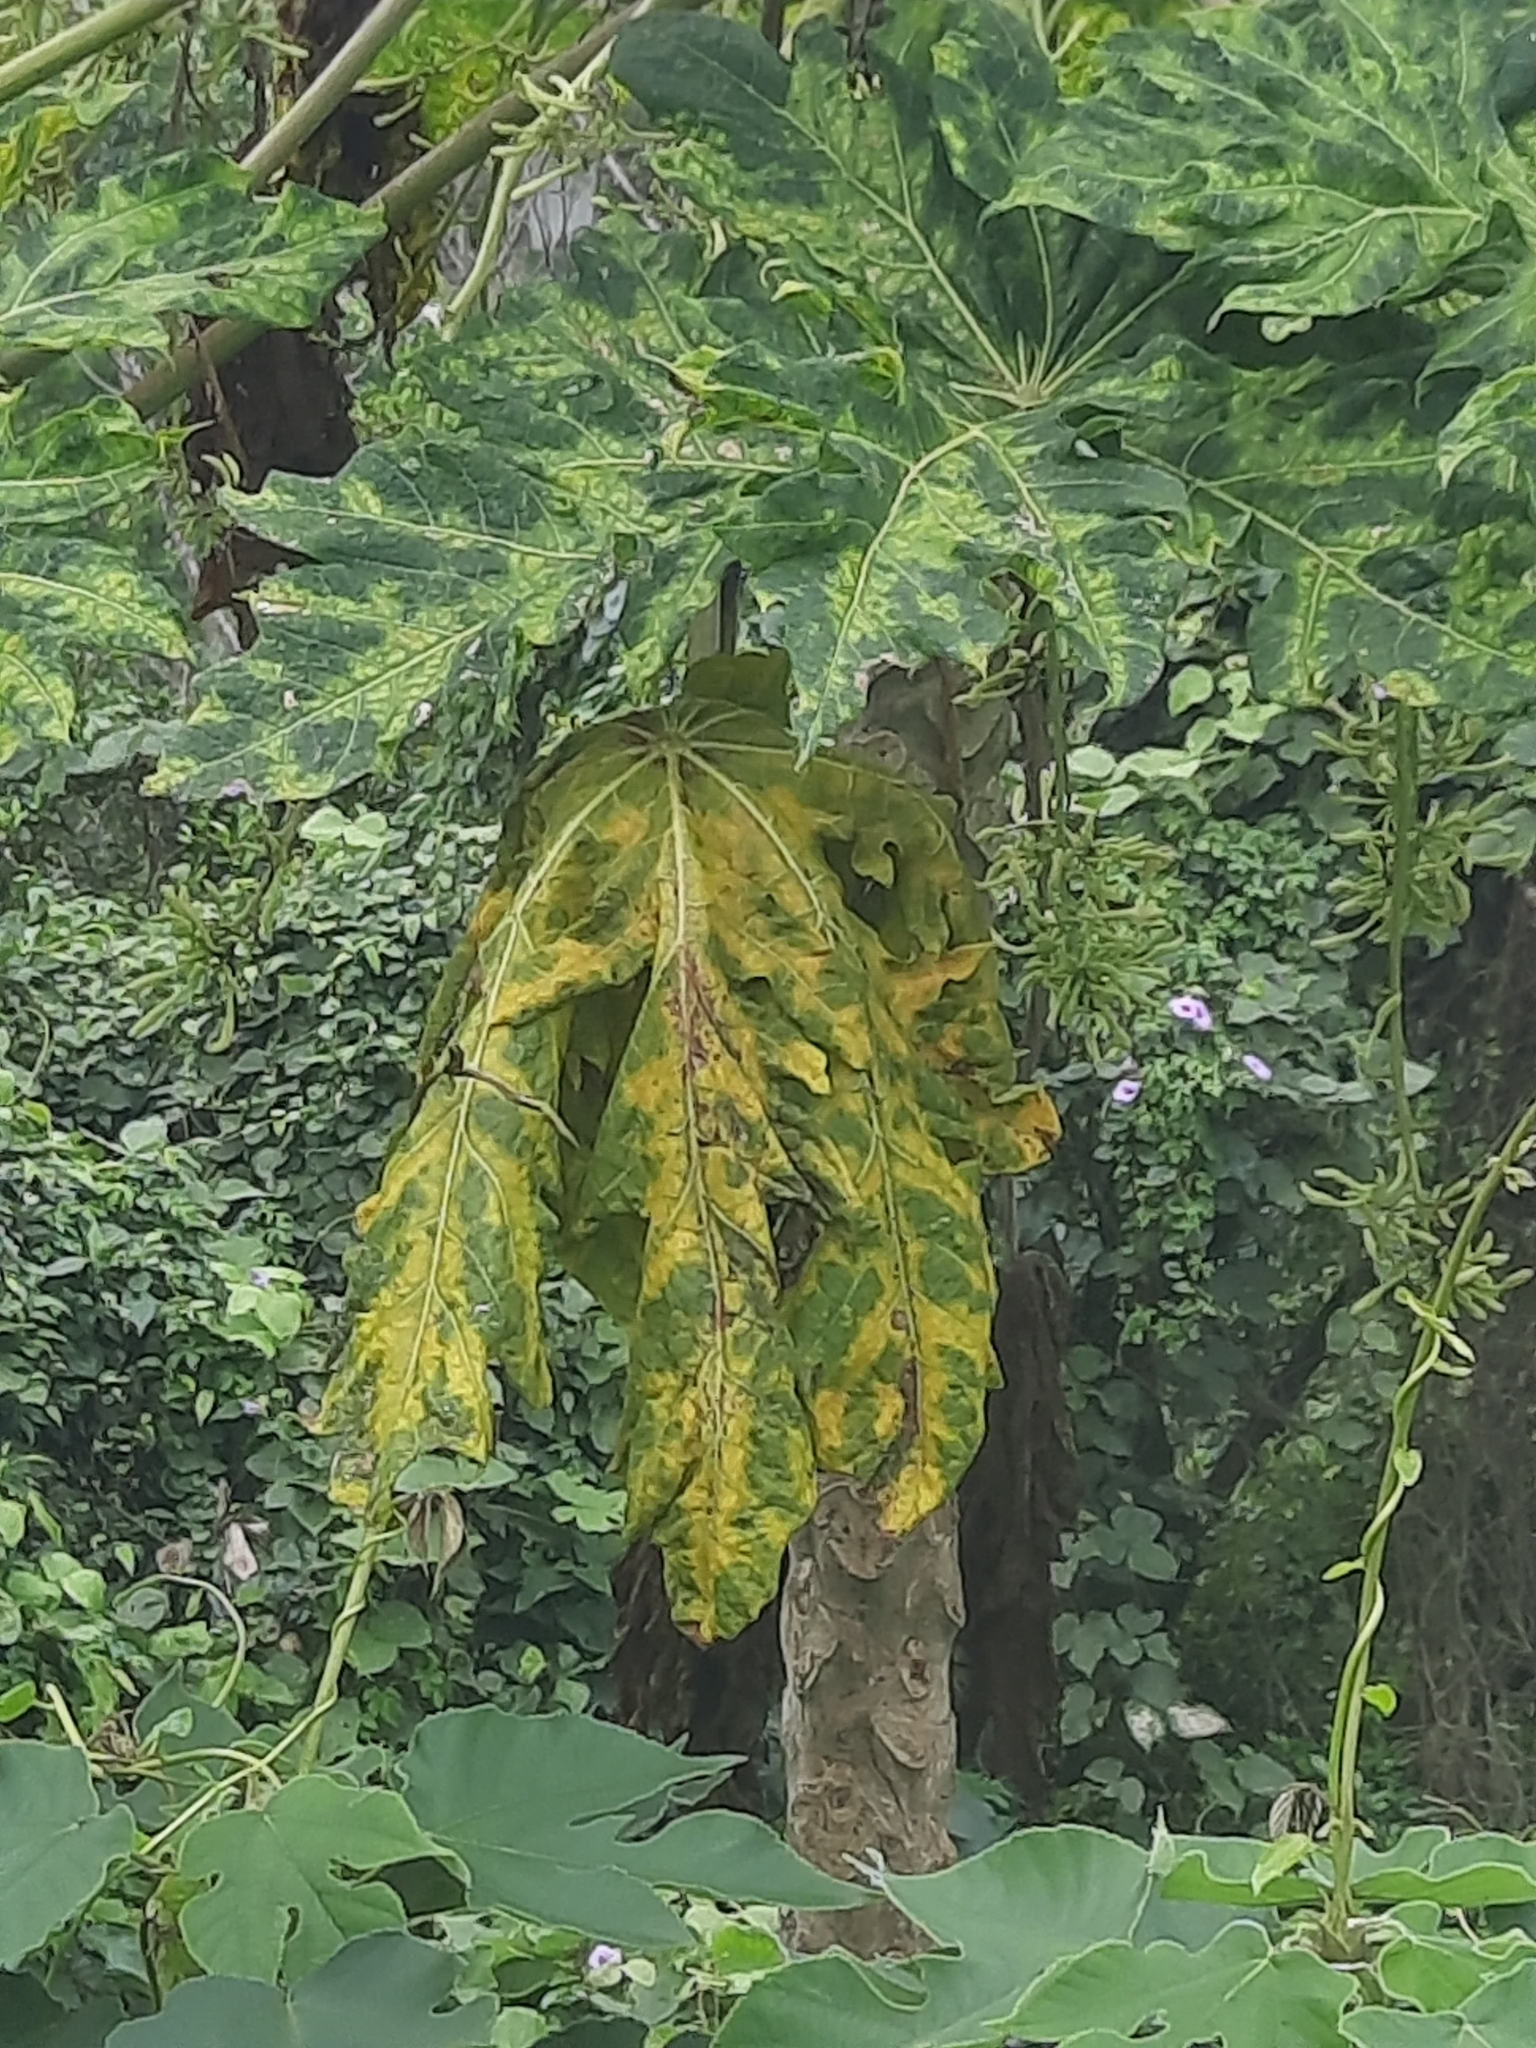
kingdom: Plantae
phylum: Tracheophyta
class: Magnoliopsida
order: Brassicales
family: Caricaceae
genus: Carica
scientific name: Carica papaya
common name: Papaya
